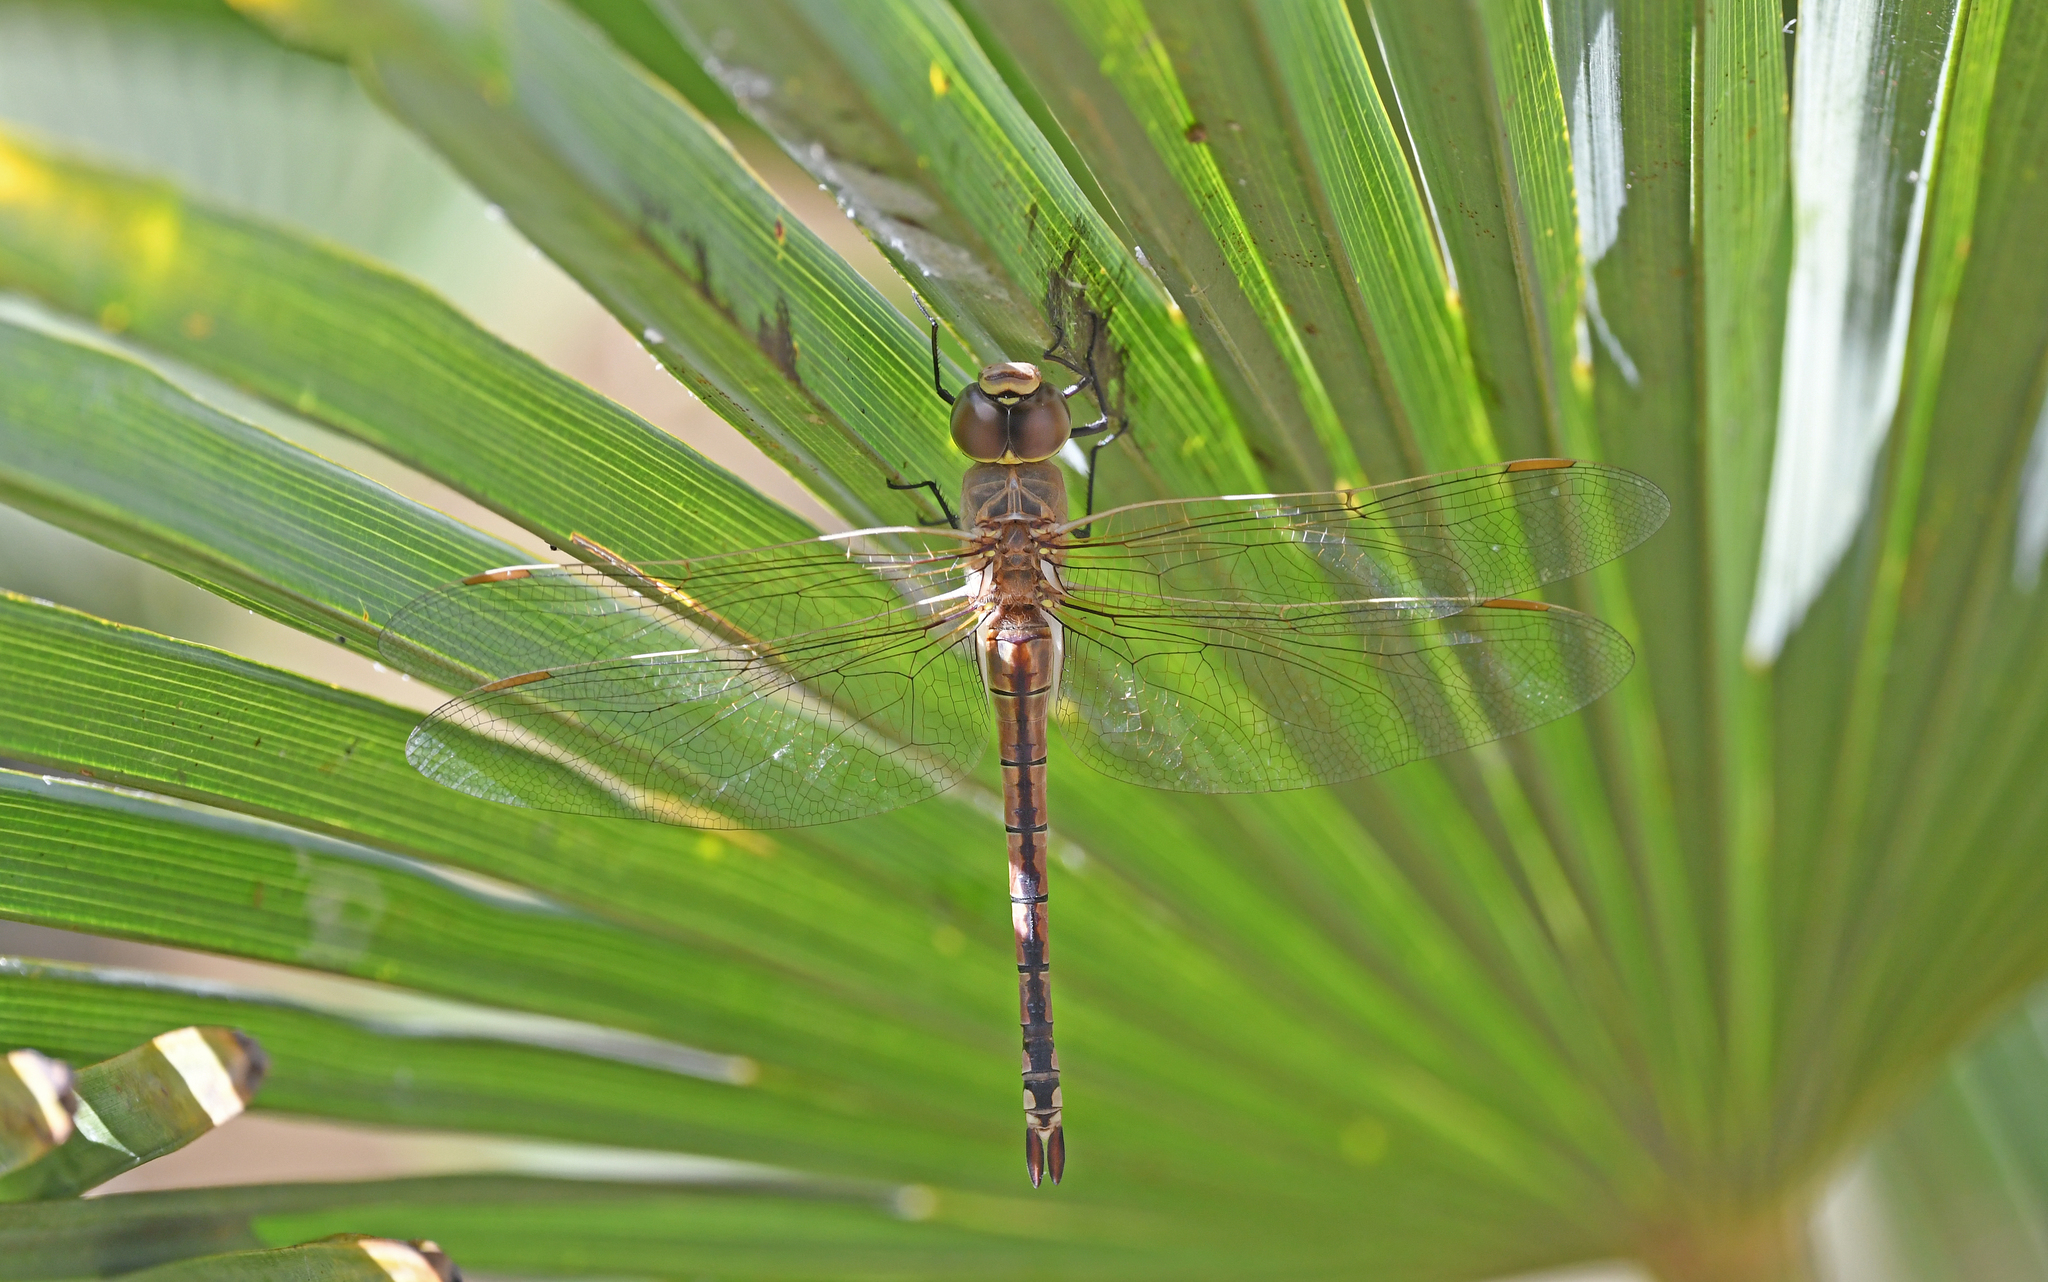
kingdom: Animalia
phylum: Arthropoda
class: Insecta
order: Odonata
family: Aeshnidae
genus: Anax
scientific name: Anax ephippiger
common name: Vagrant emperor
